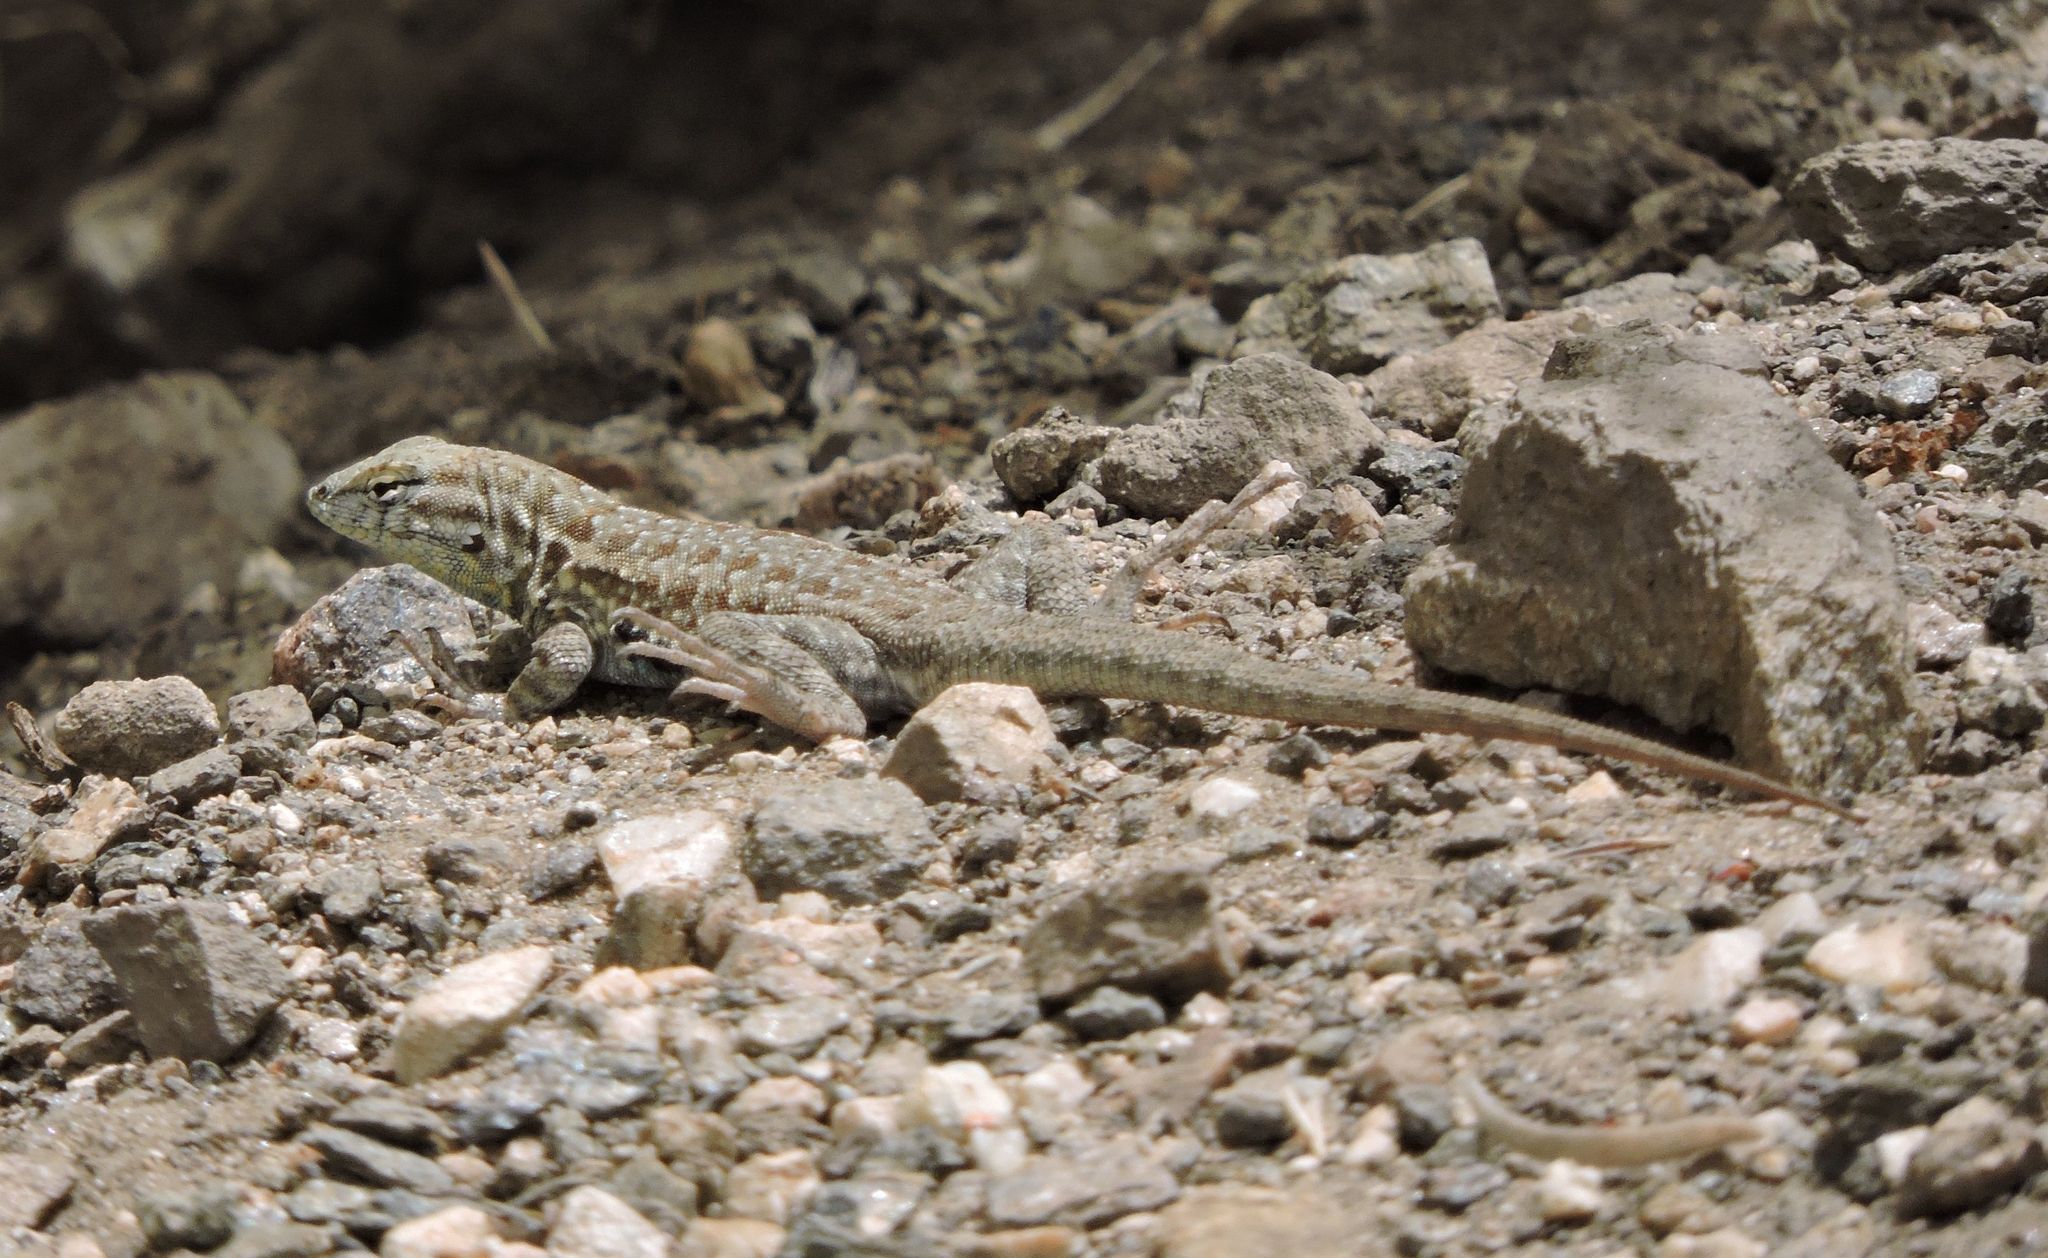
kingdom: Animalia
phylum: Chordata
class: Squamata
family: Phrynosomatidae
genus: Uta
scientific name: Uta stansburiana
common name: Side-blotched lizard
